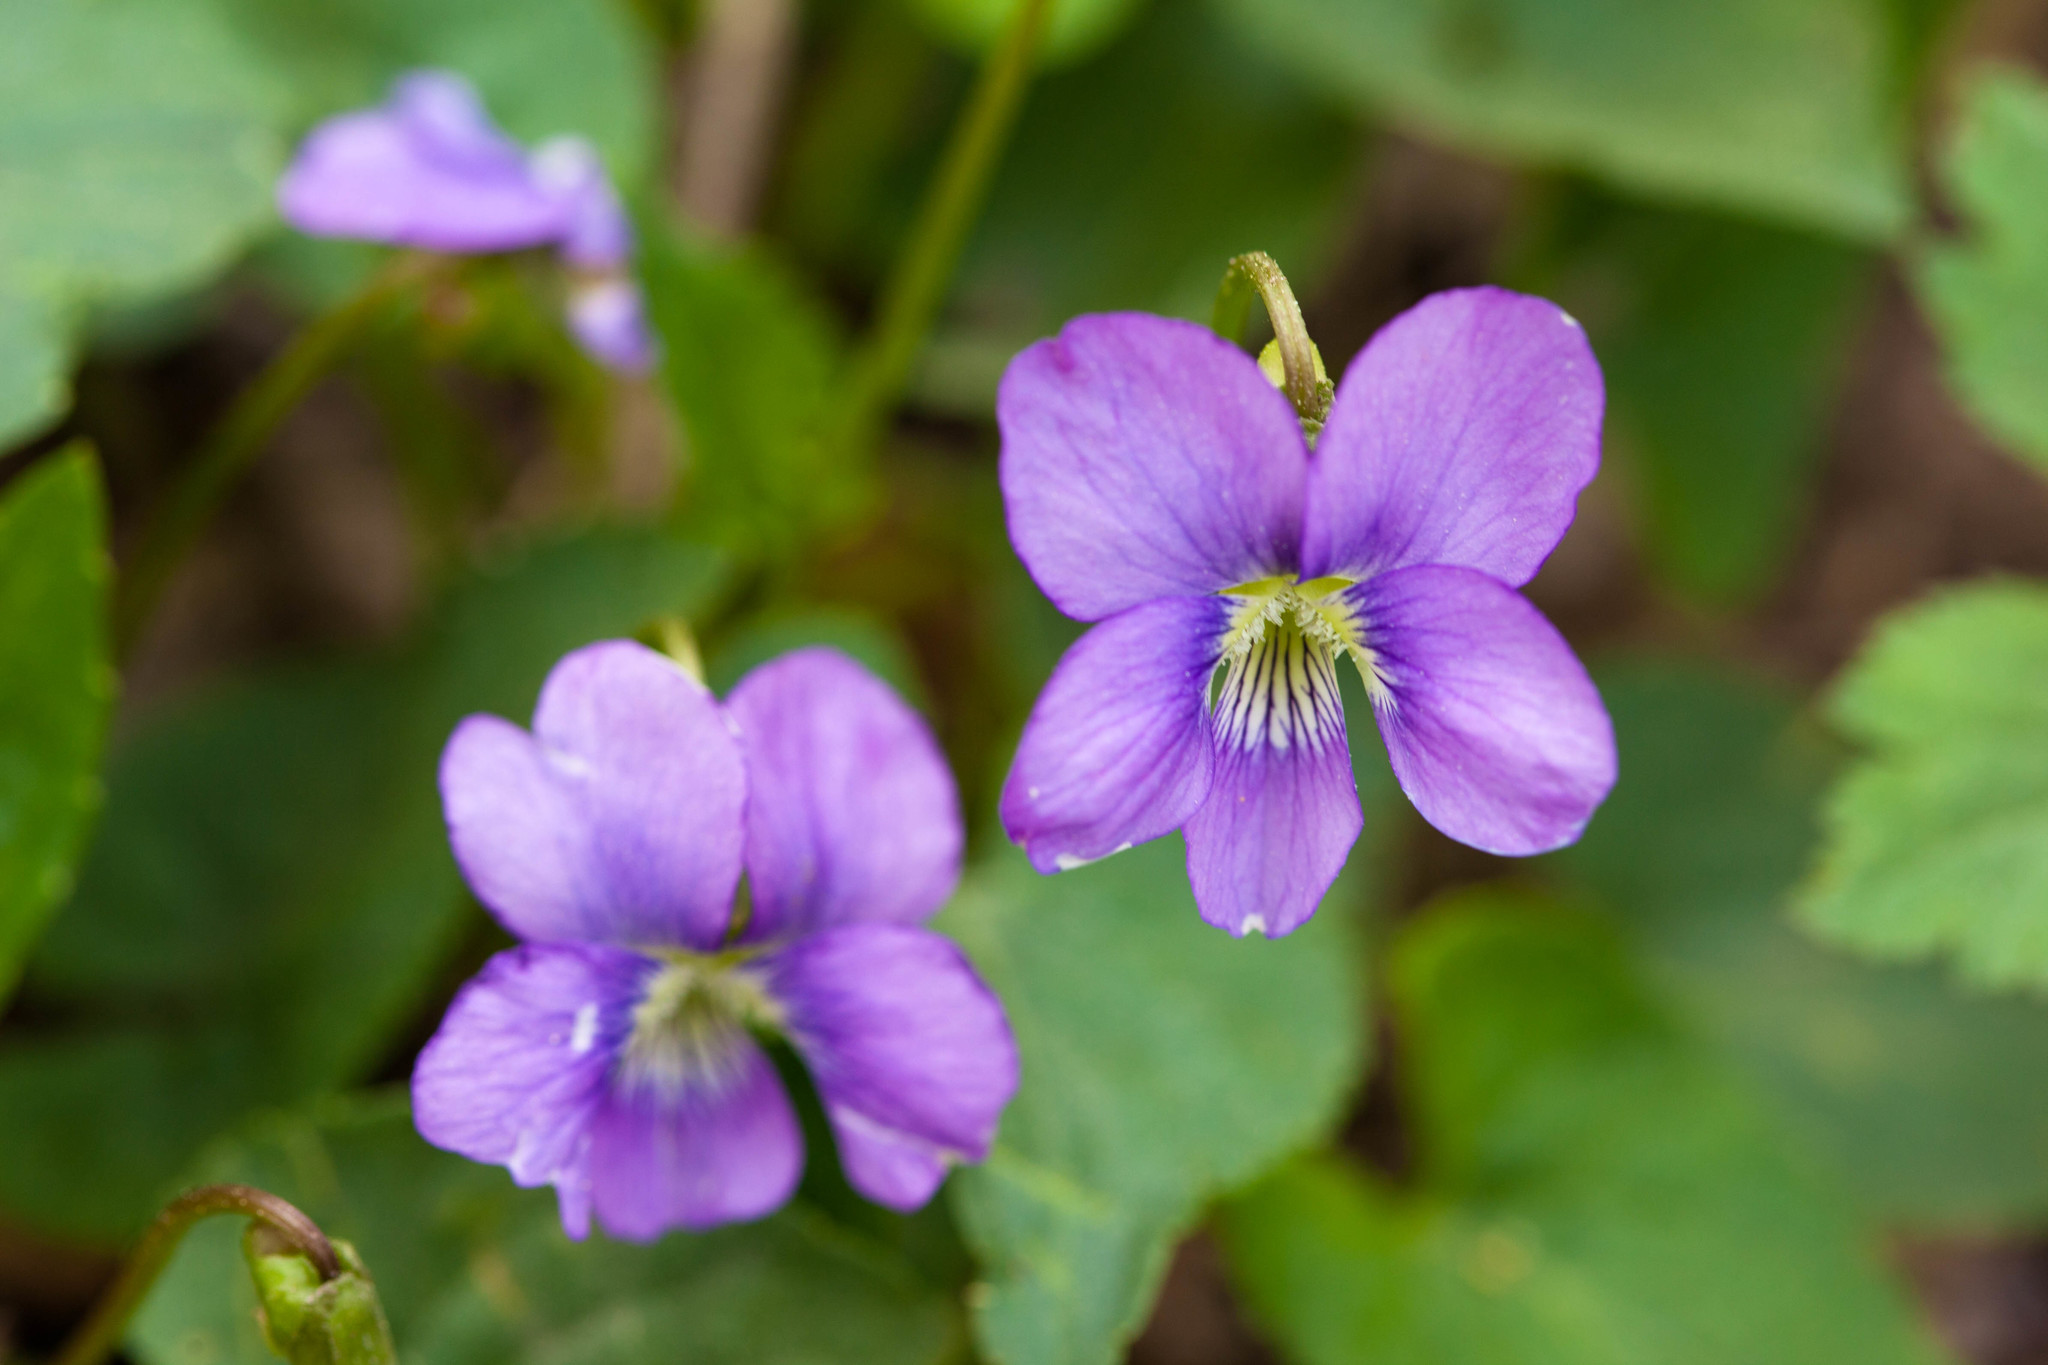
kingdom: Plantae
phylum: Tracheophyta
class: Magnoliopsida
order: Malpighiales
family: Violaceae
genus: Viola
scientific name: Viola sororia
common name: Dooryard violet
